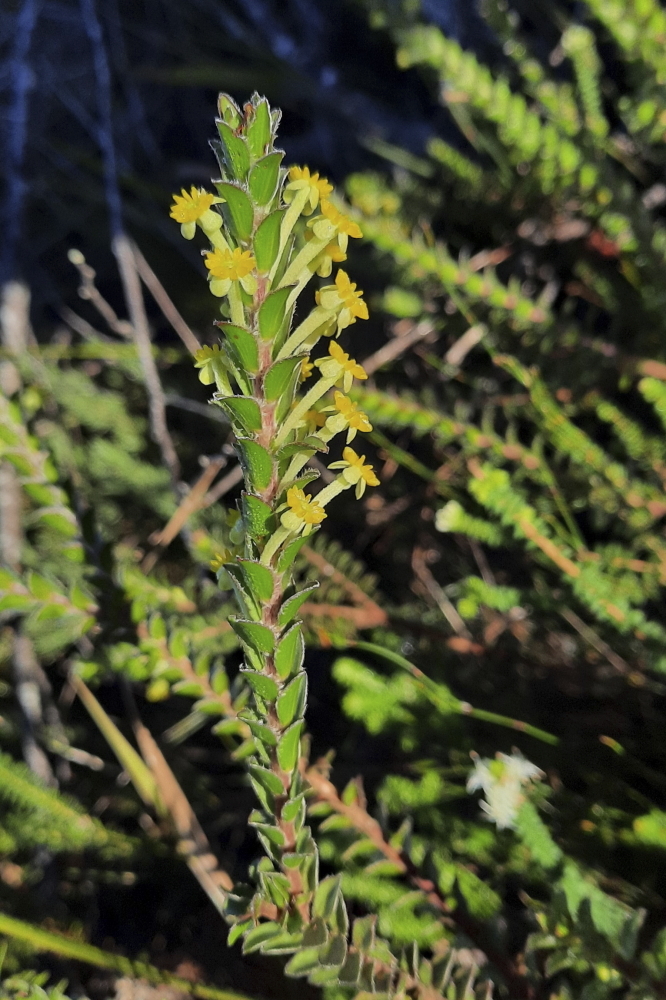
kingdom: Plantae
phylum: Tracheophyta
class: Magnoliopsida
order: Malvales
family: Thymelaeaceae
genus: Struthiola
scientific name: Struthiola argentea
